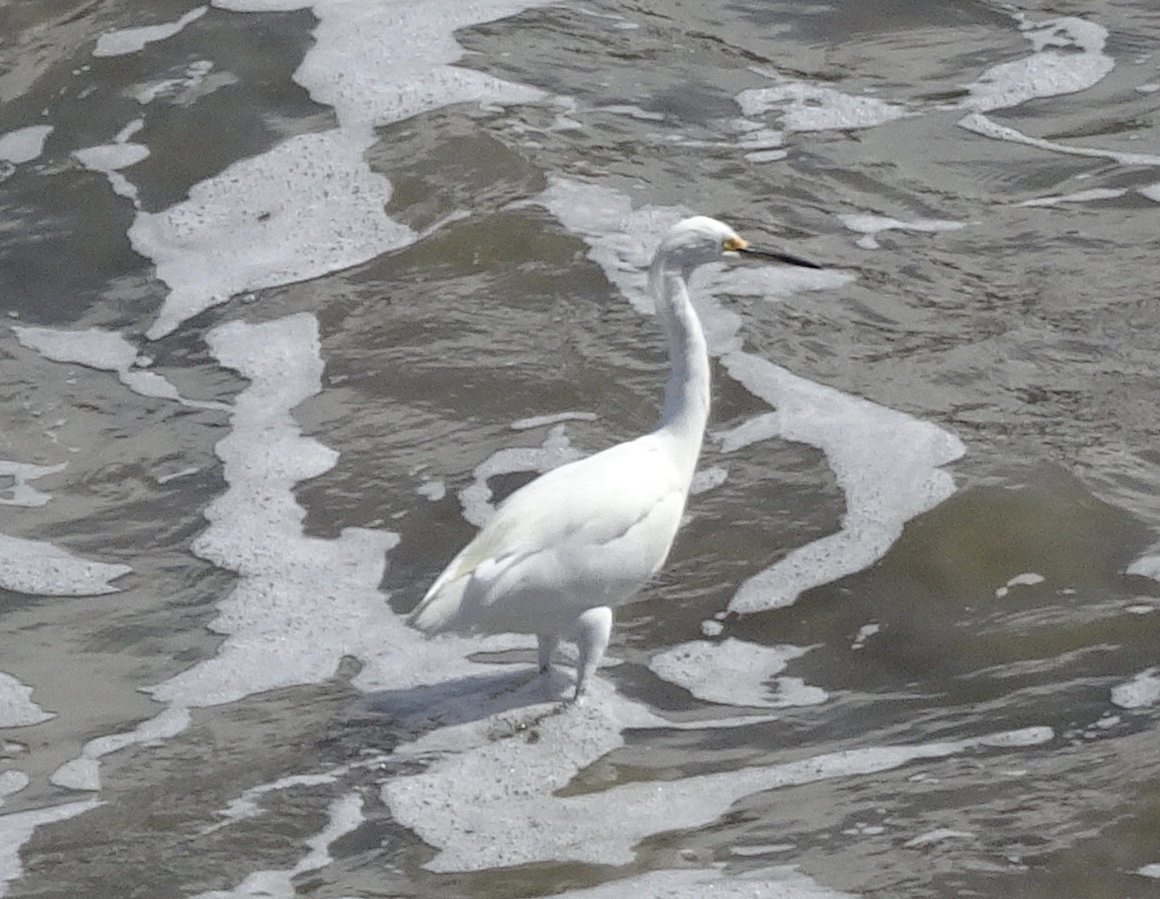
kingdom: Animalia
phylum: Chordata
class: Aves
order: Pelecaniformes
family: Ardeidae
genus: Egretta
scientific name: Egretta thula
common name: Snowy egret
